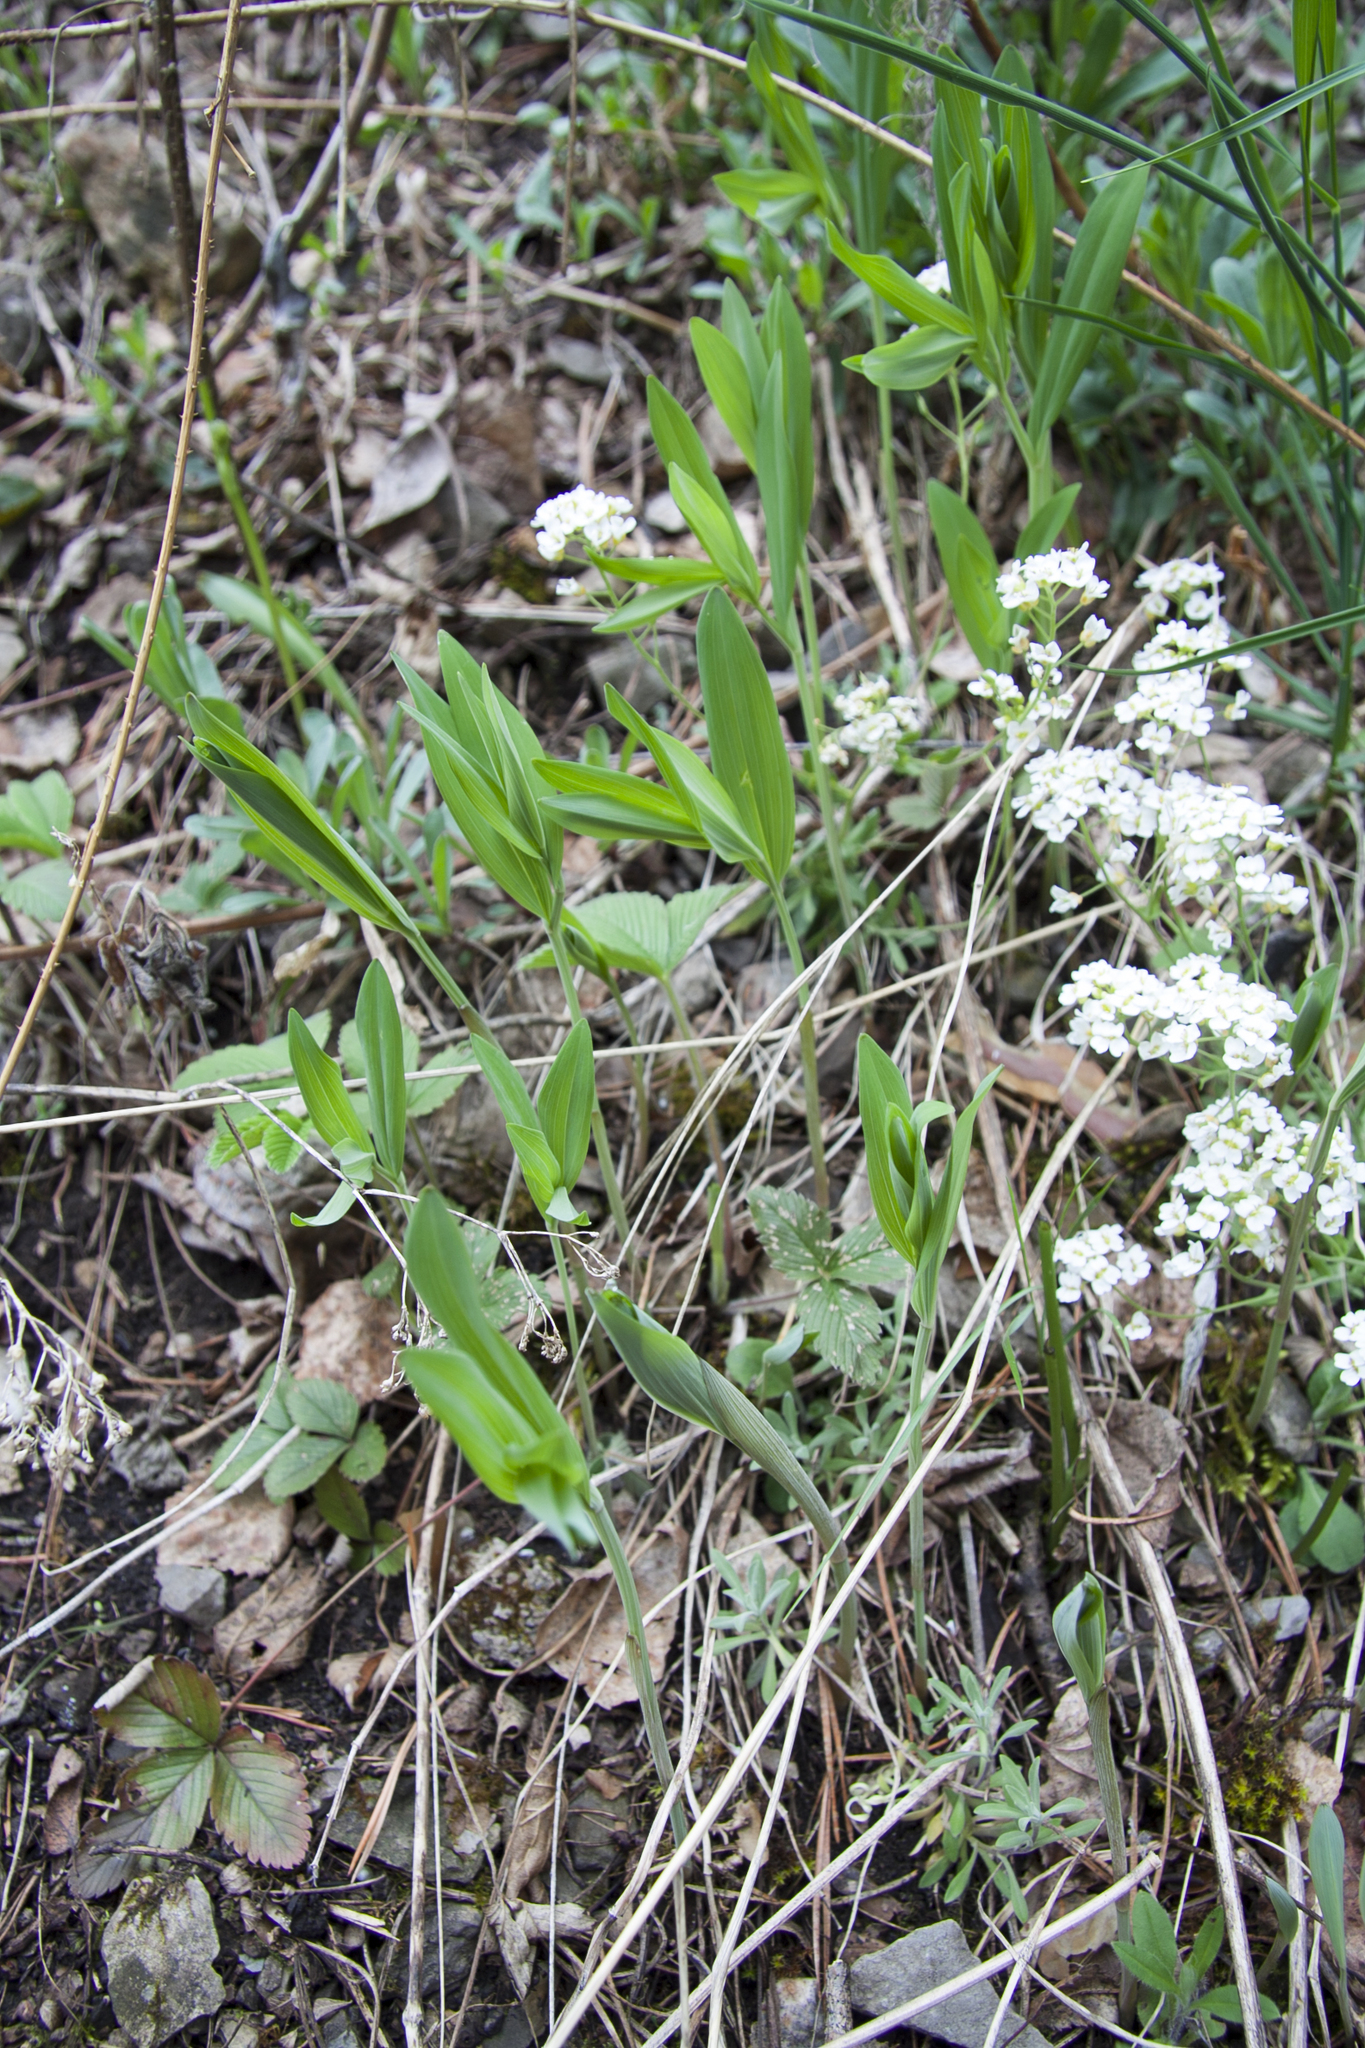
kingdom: Plantae
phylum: Tracheophyta
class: Liliopsida
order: Asparagales
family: Asparagaceae
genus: Polygonatum
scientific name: Polygonatum odoratum
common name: Angular solomon's-seal
